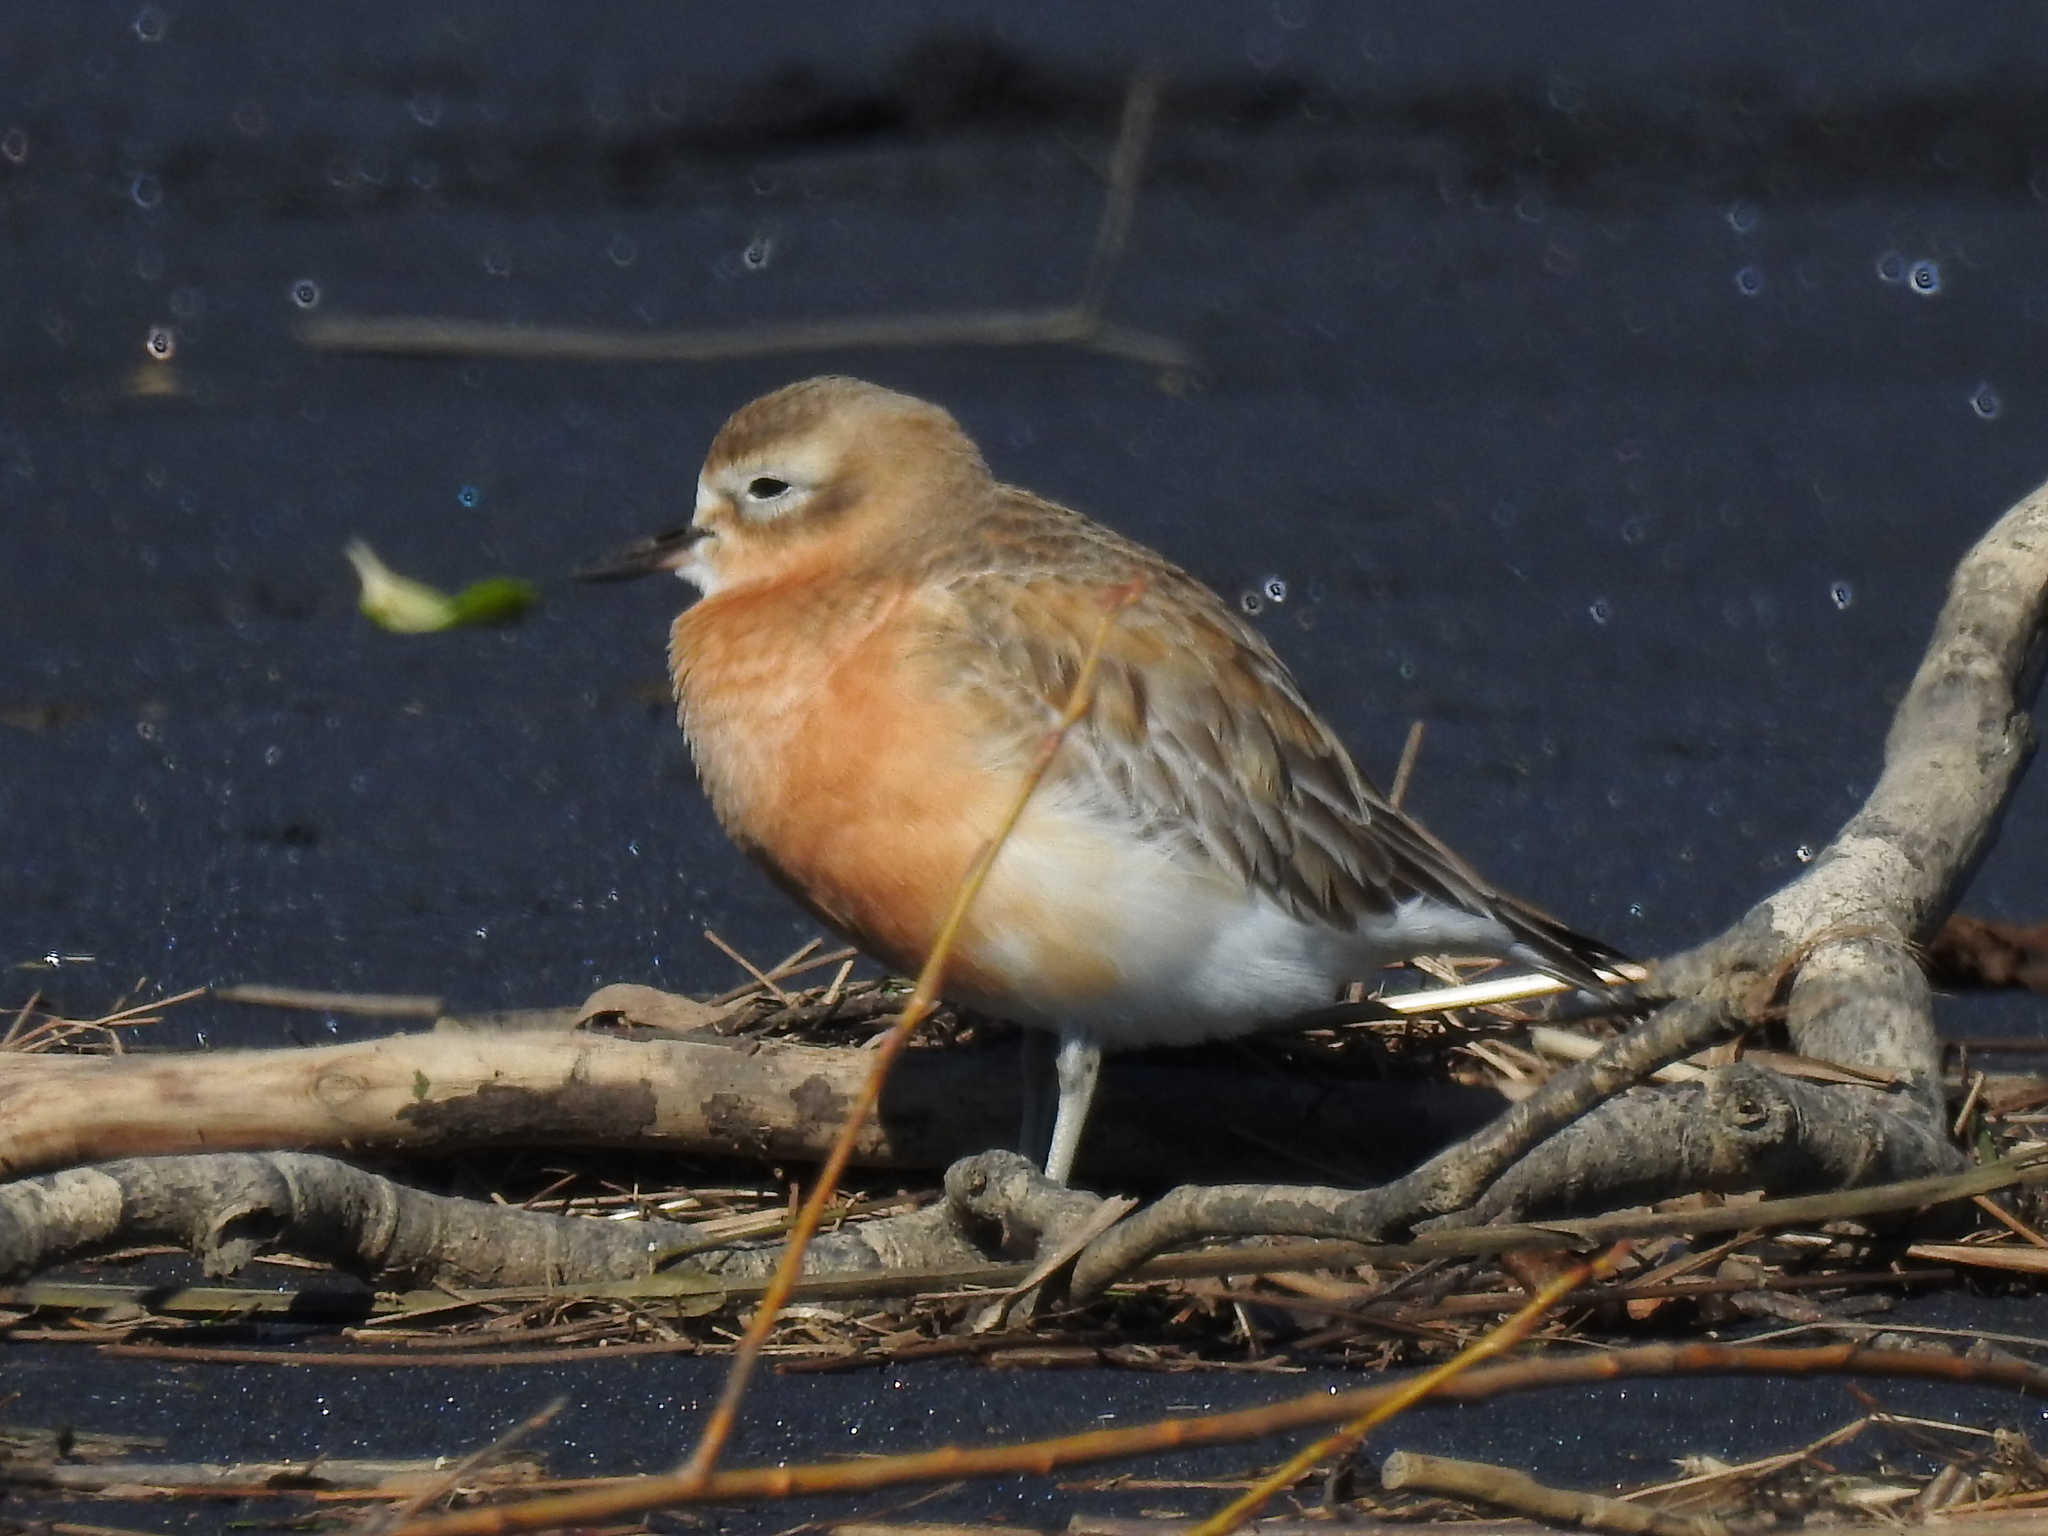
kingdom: Animalia
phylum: Chordata
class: Aves
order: Charadriiformes
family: Charadriidae
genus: Anarhynchus
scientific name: Anarhynchus
